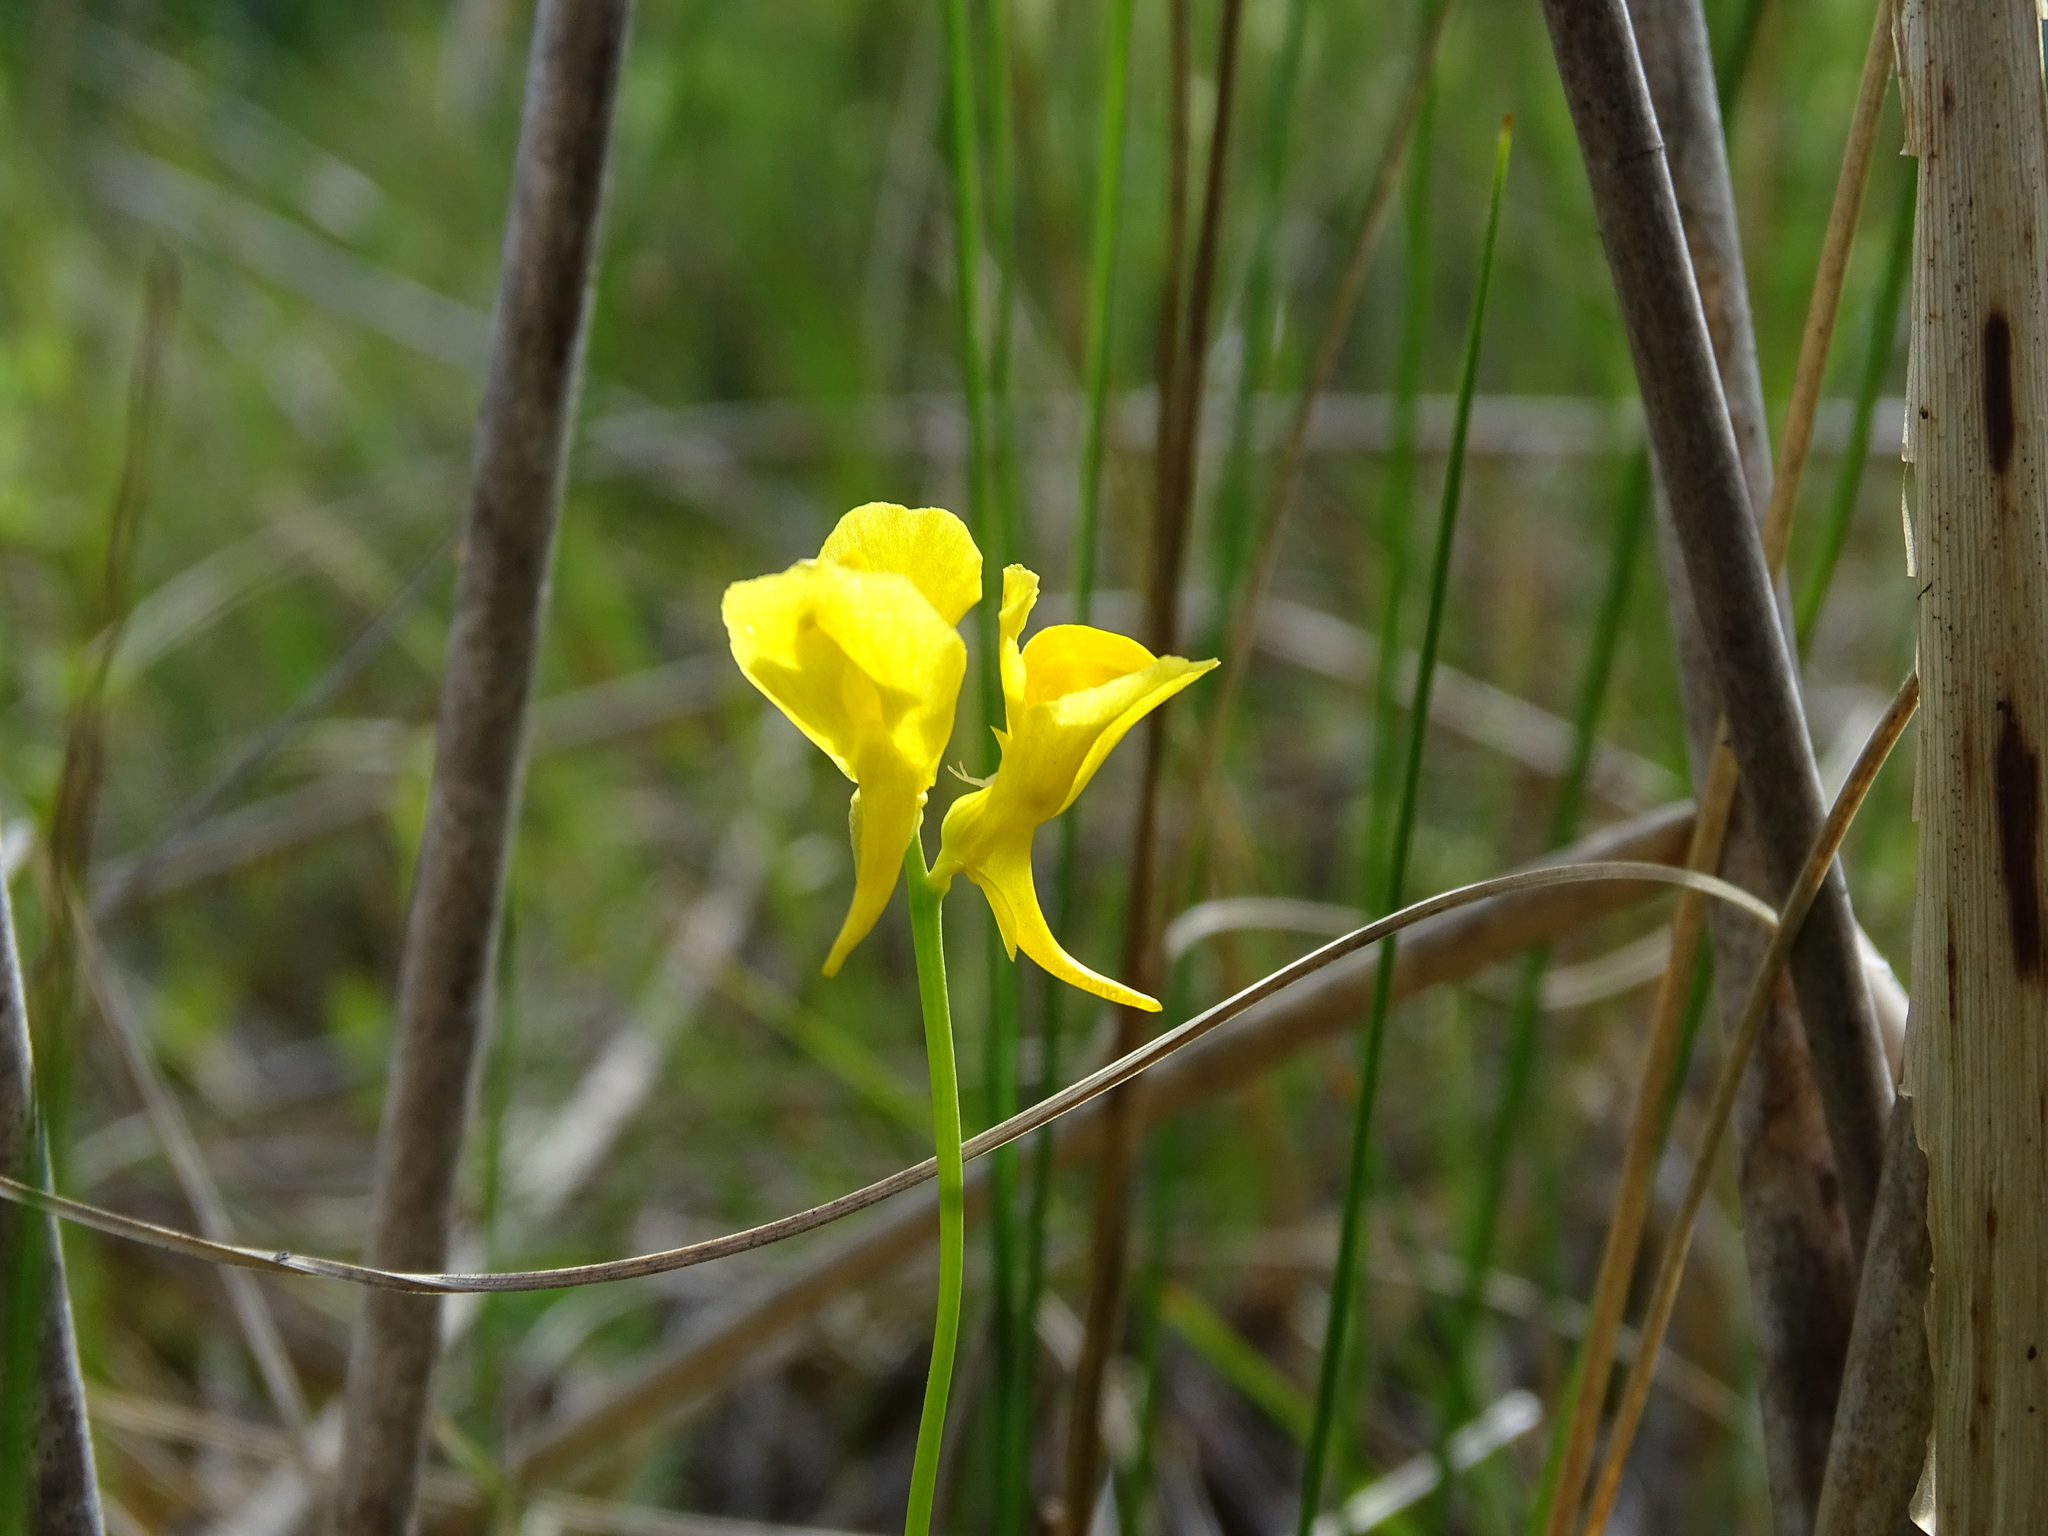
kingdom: Plantae
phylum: Tracheophyta
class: Magnoliopsida
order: Lamiales
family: Lentibulariaceae
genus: Utricularia
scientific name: Utricularia cornuta
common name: Horned bladderwort
